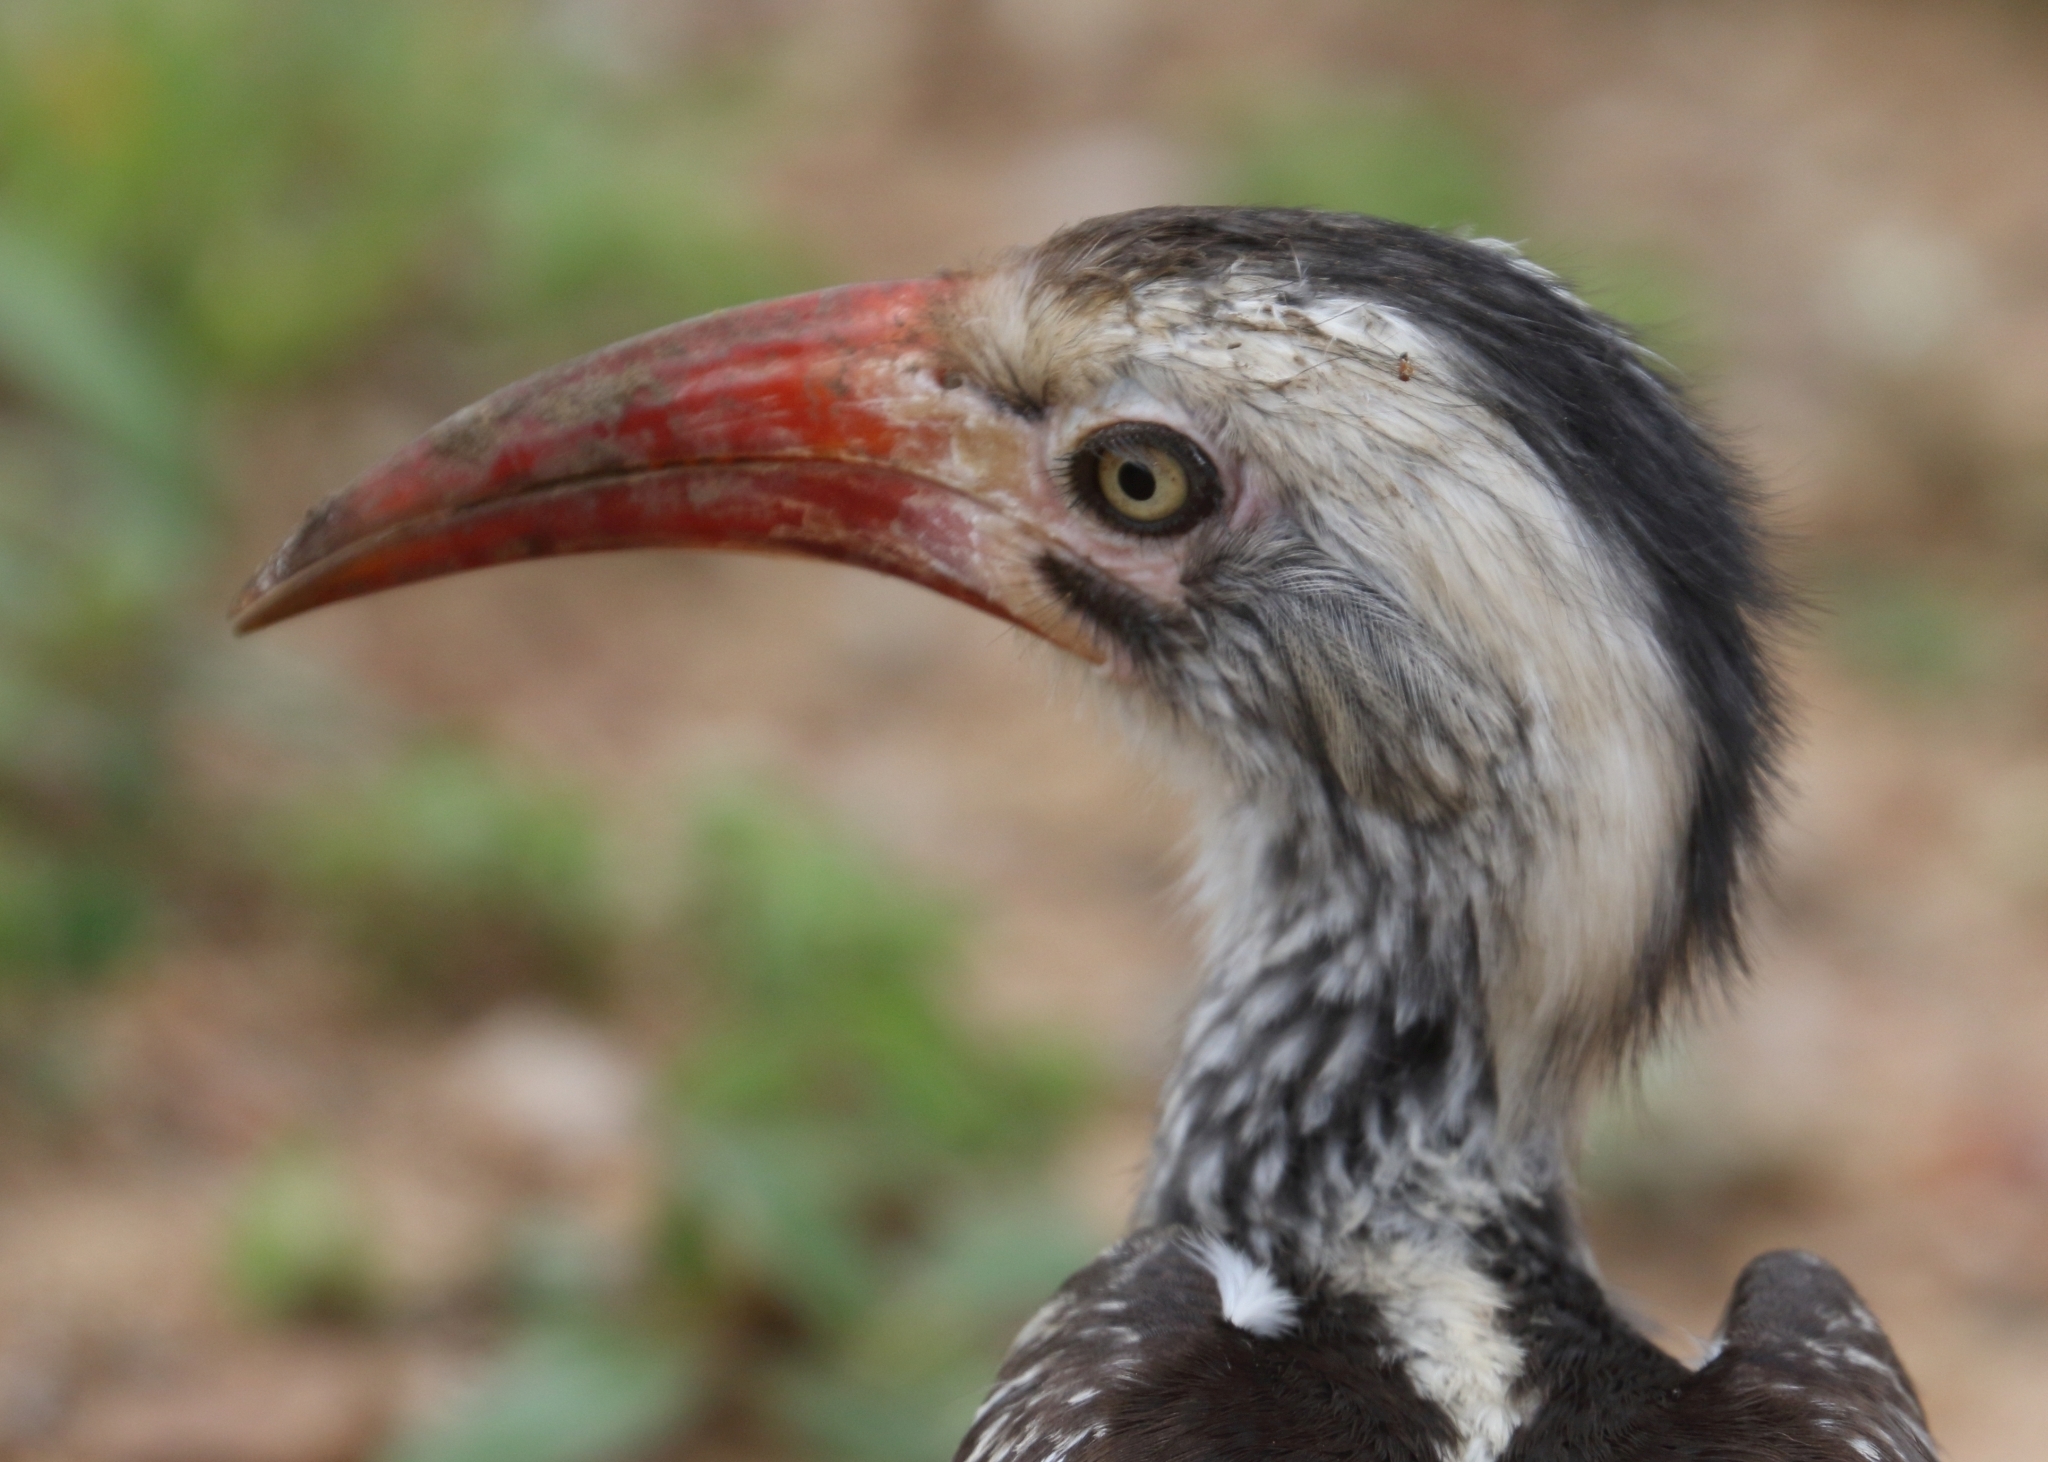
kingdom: Animalia
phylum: Chordata
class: Aves
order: Bucerotiformes
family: Bucerotidae
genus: Tockus
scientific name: Tockus rufirostris
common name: Southern red-billed hornbill
